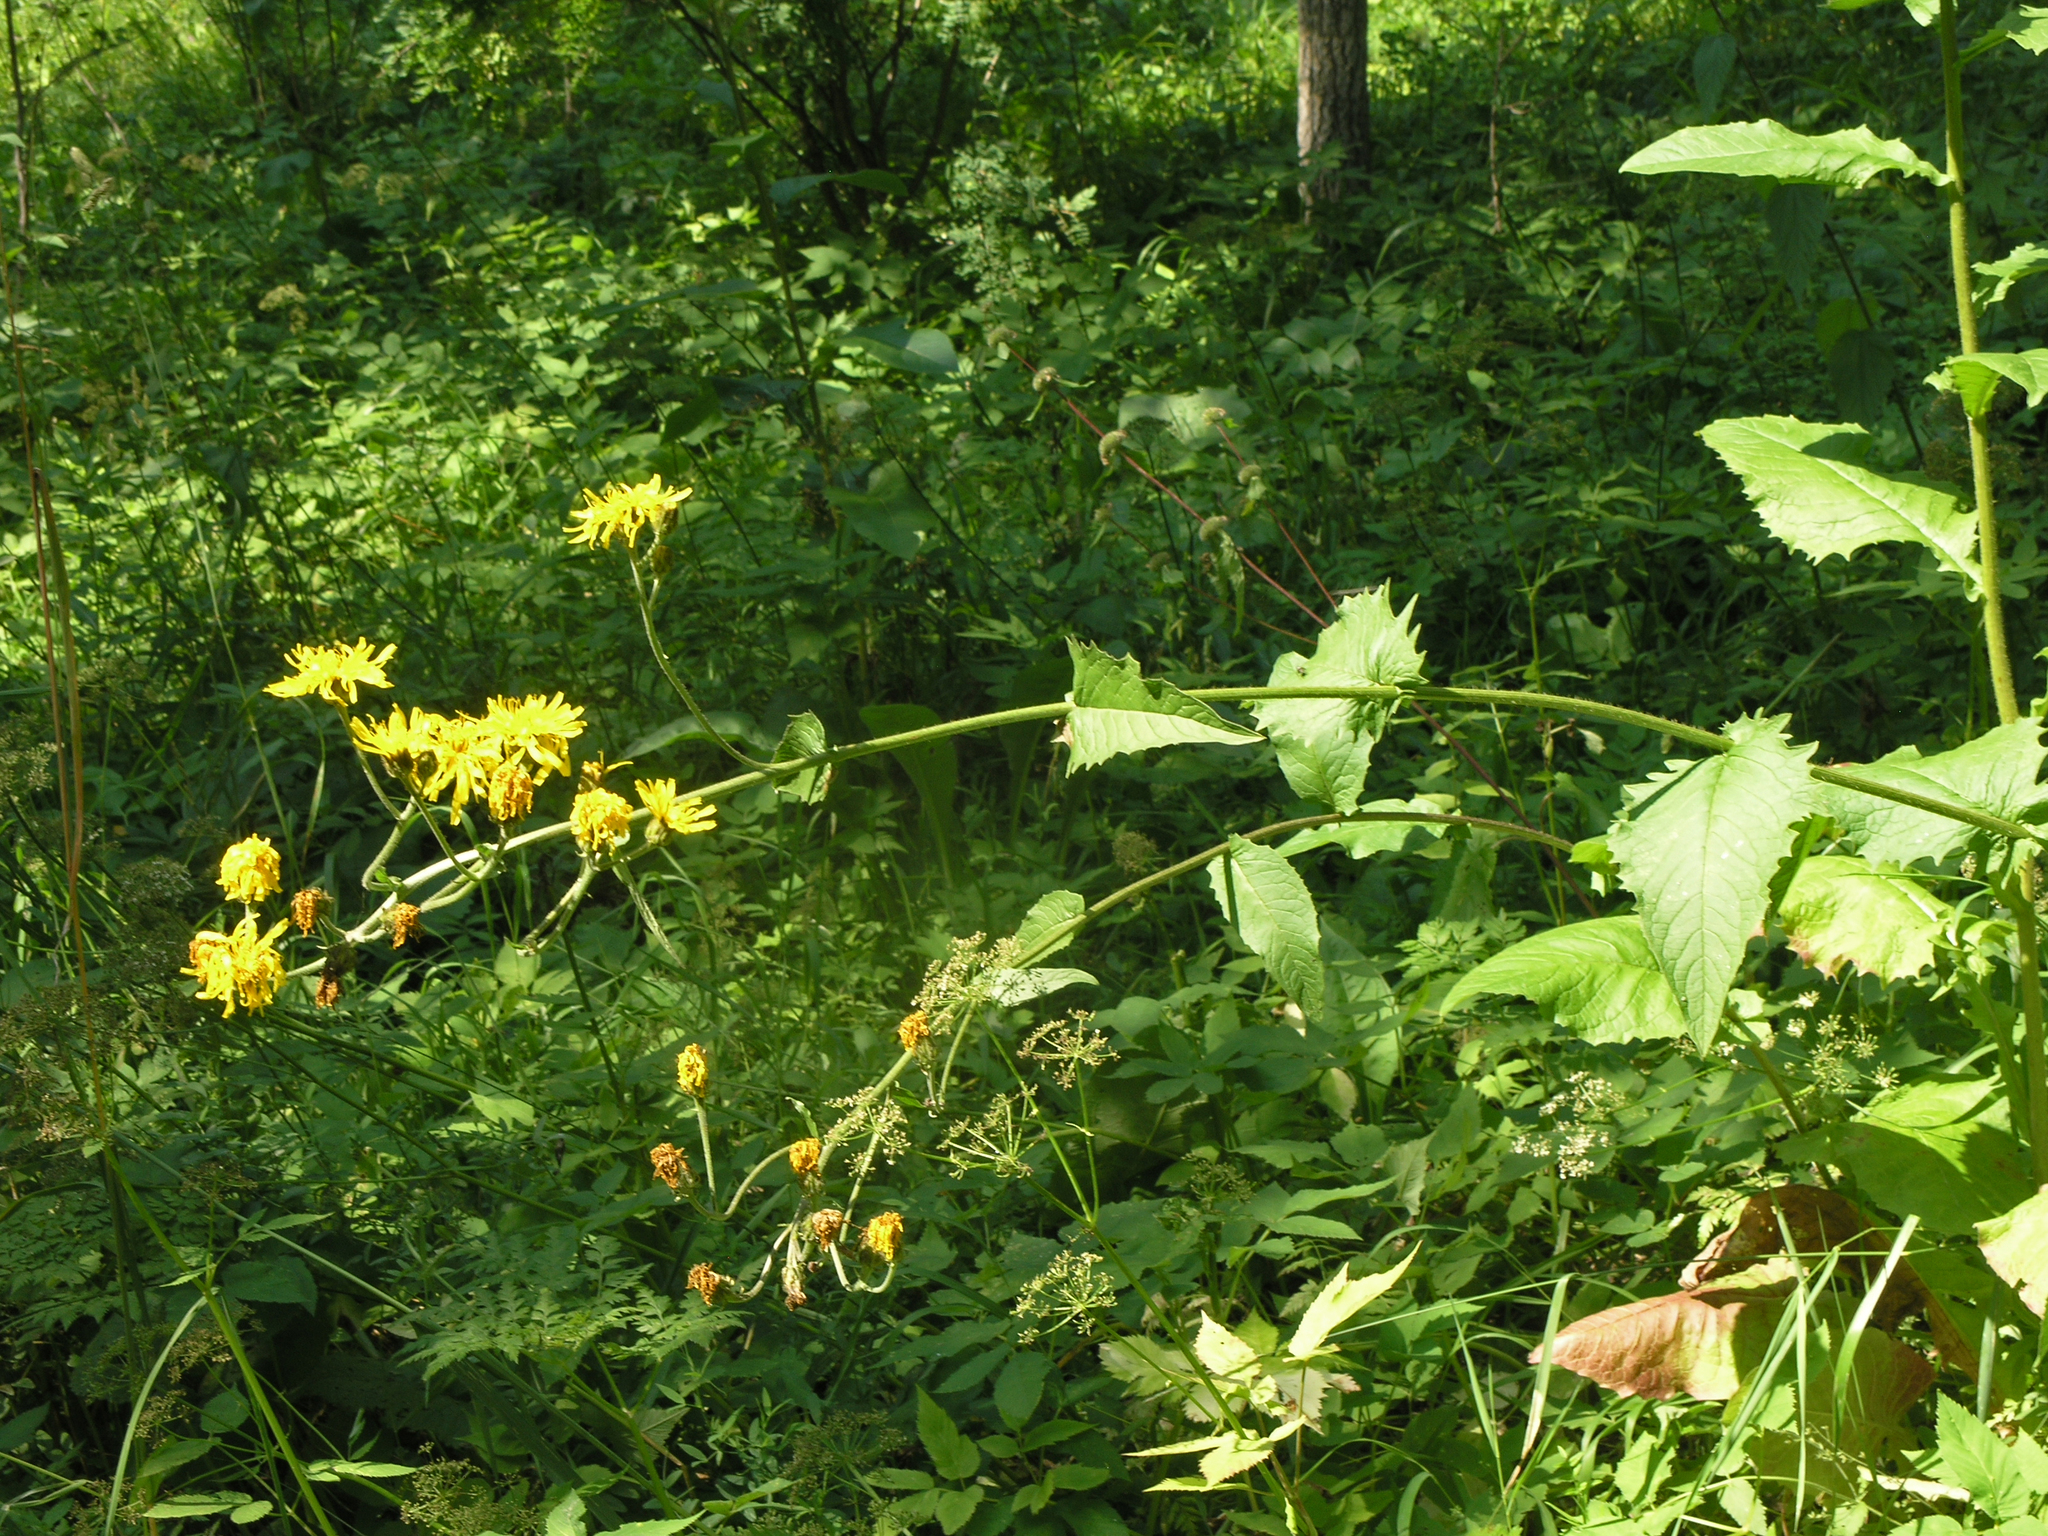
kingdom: Plantae
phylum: Tracheophyta
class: Magnoliopsida
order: Asterales
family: Asteraceae
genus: Crepis
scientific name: Crepis sibirica
